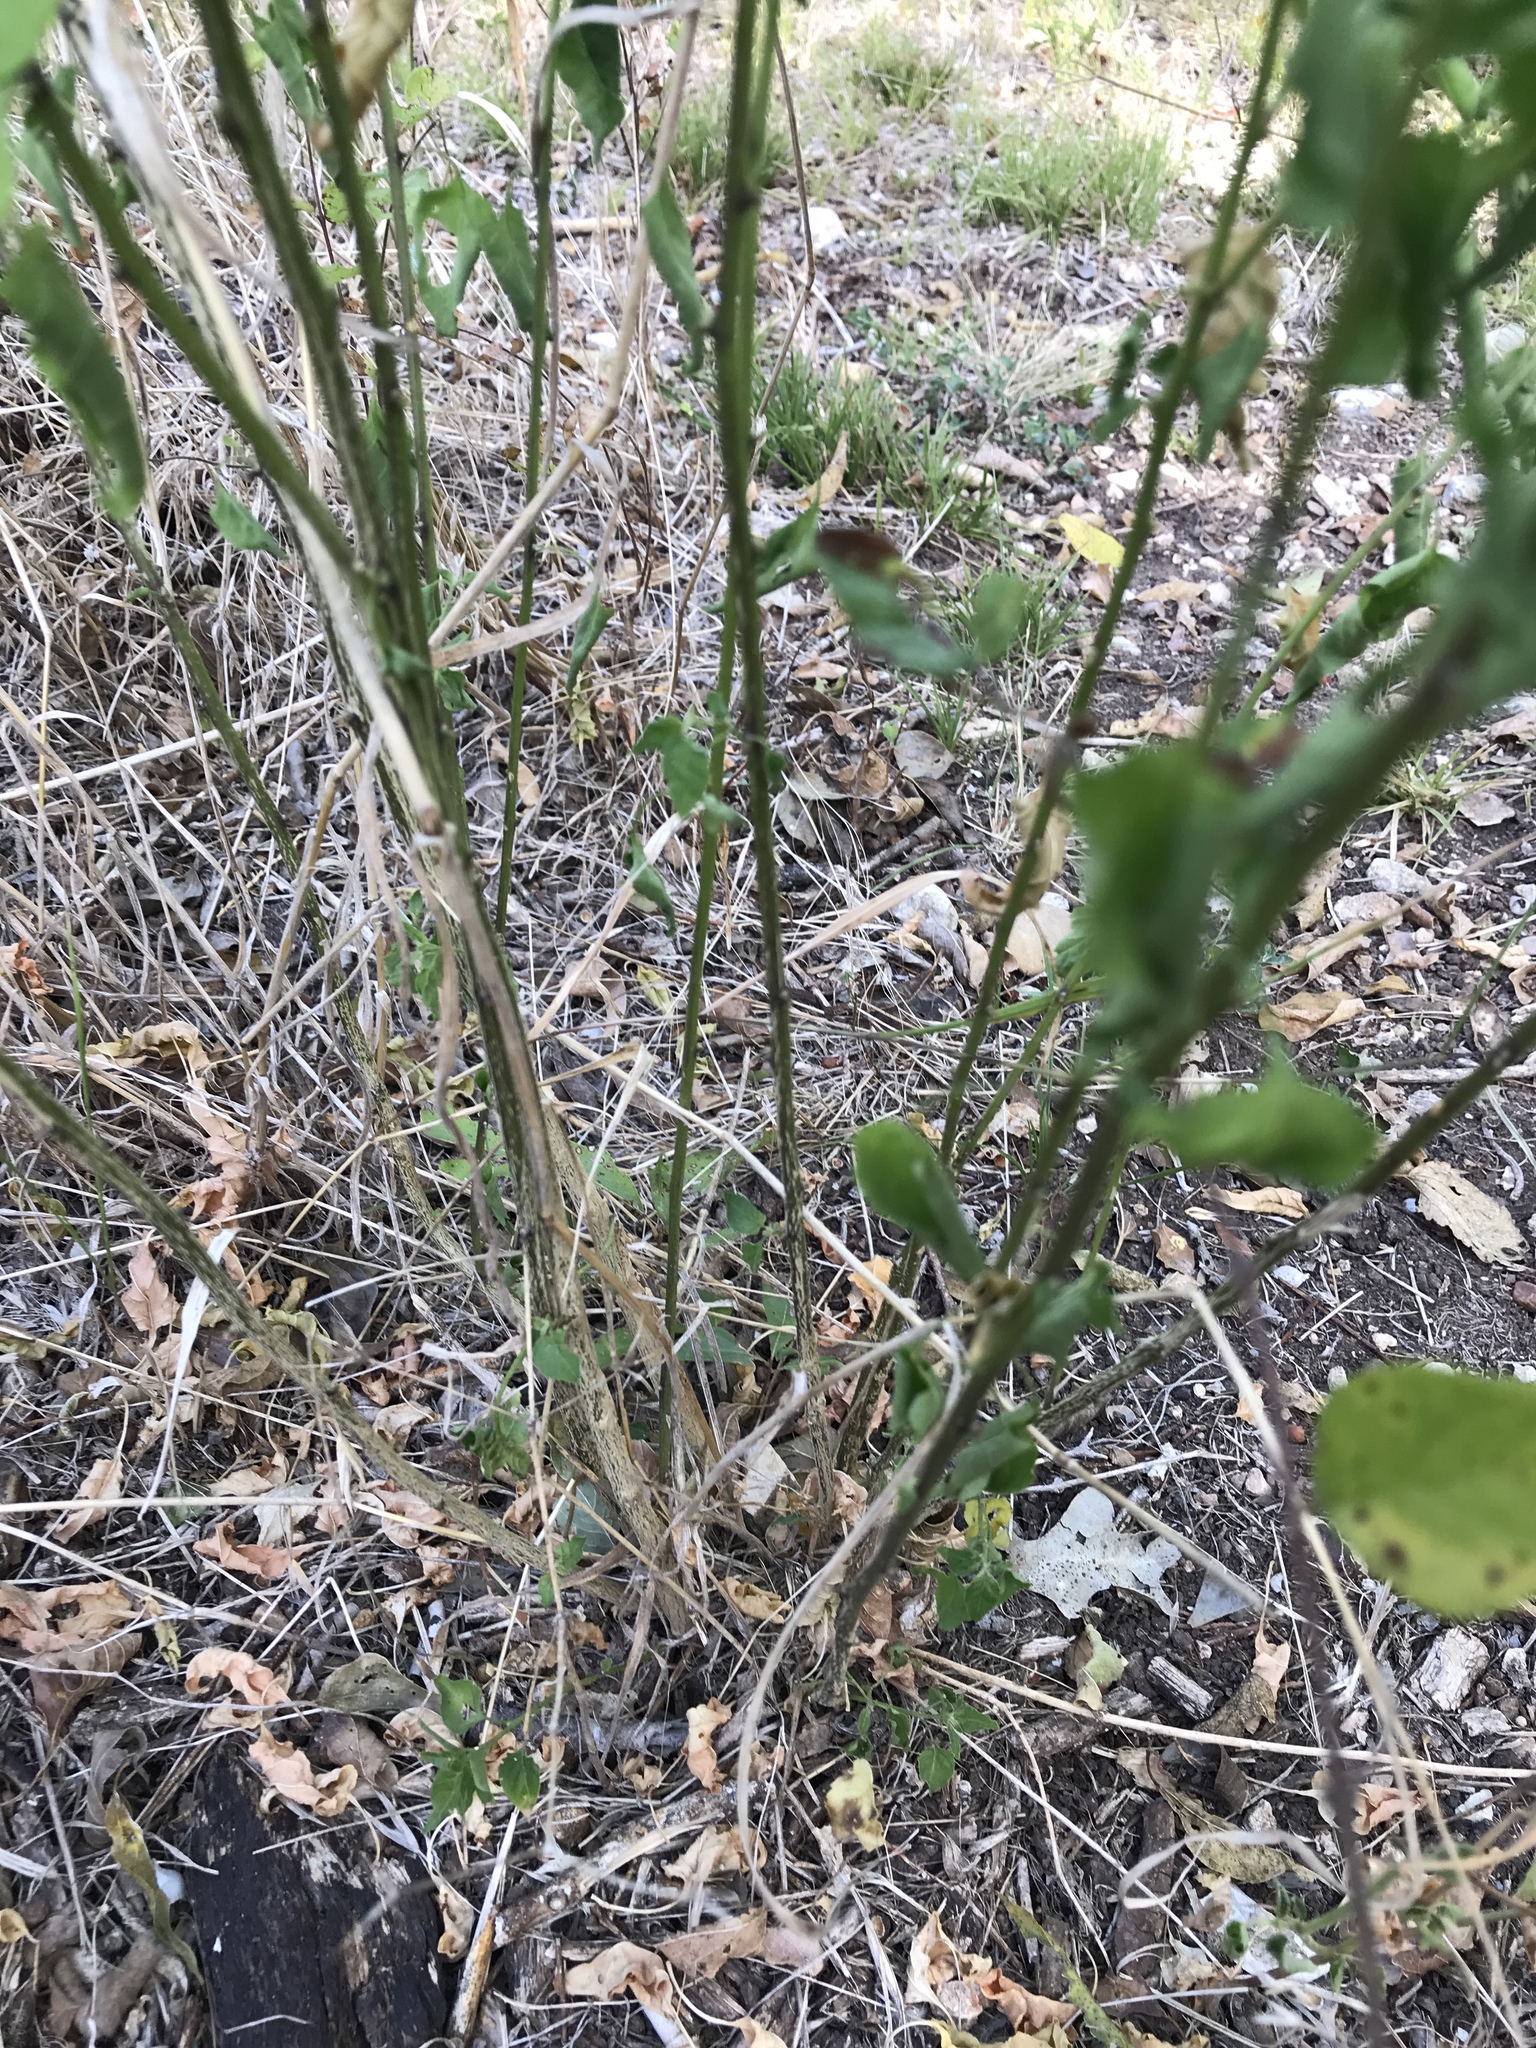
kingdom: Plantae
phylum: Tracheophyta
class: Magnoliopsida
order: Solanales
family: Solanaceae
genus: Capsicum
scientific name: Capsicum annuum
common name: Sweet pepper
